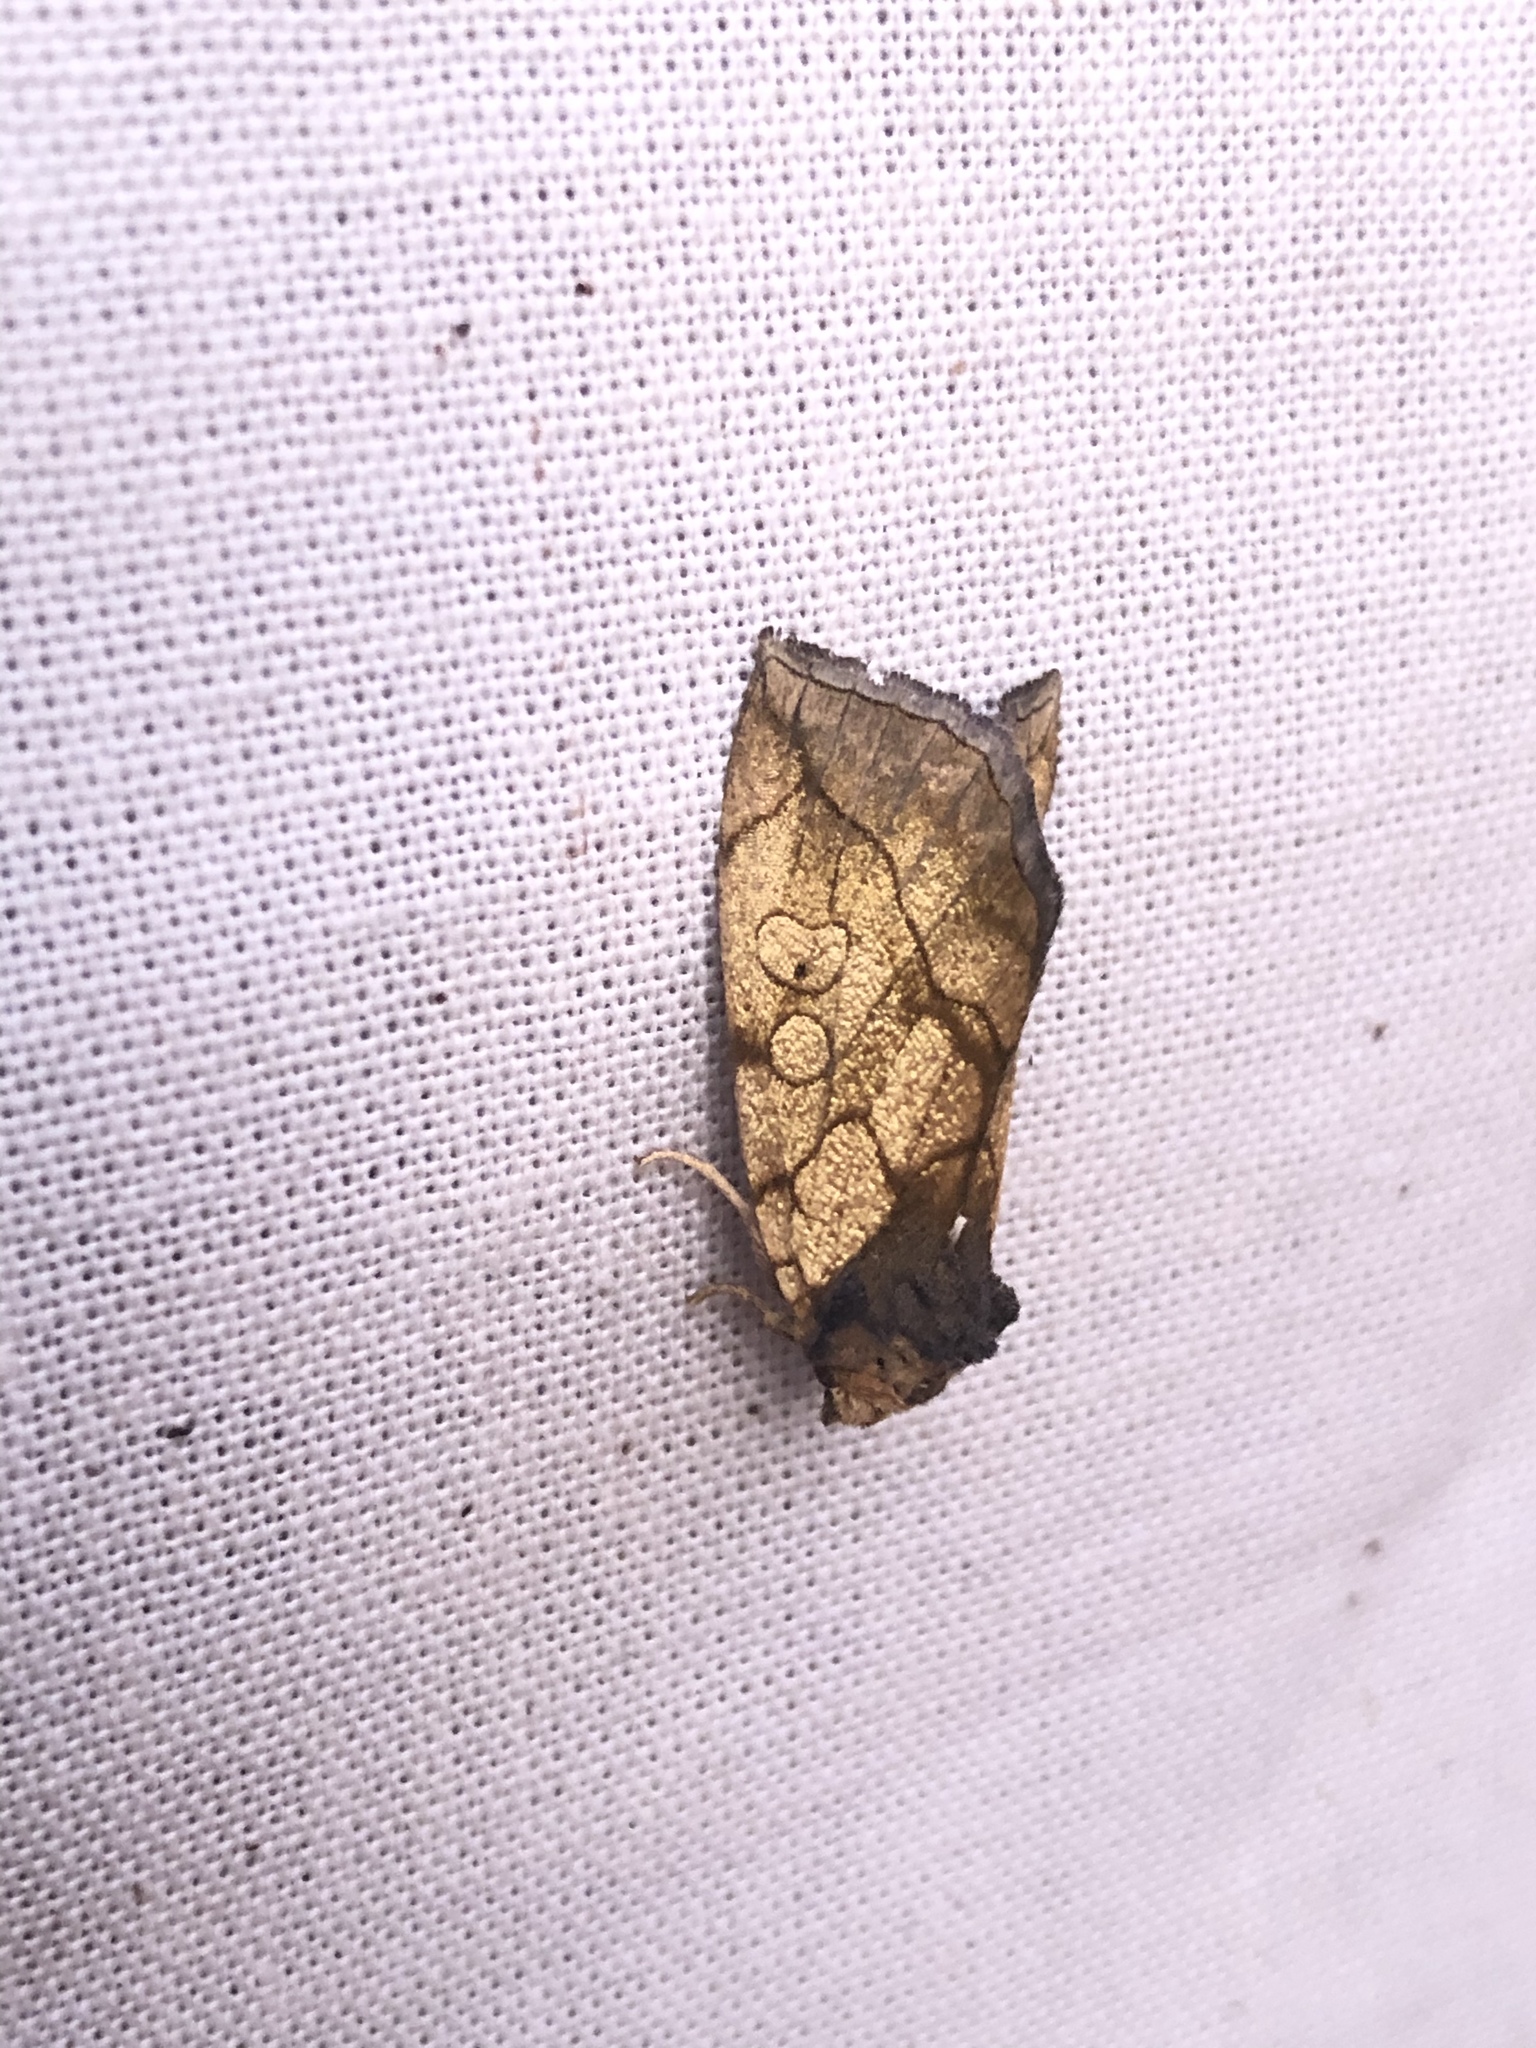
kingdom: Animalia
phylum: Arthropoda
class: Insecta
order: Lepidoptera
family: Noctuidae
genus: Basilodes
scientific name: Basilodes pepita
